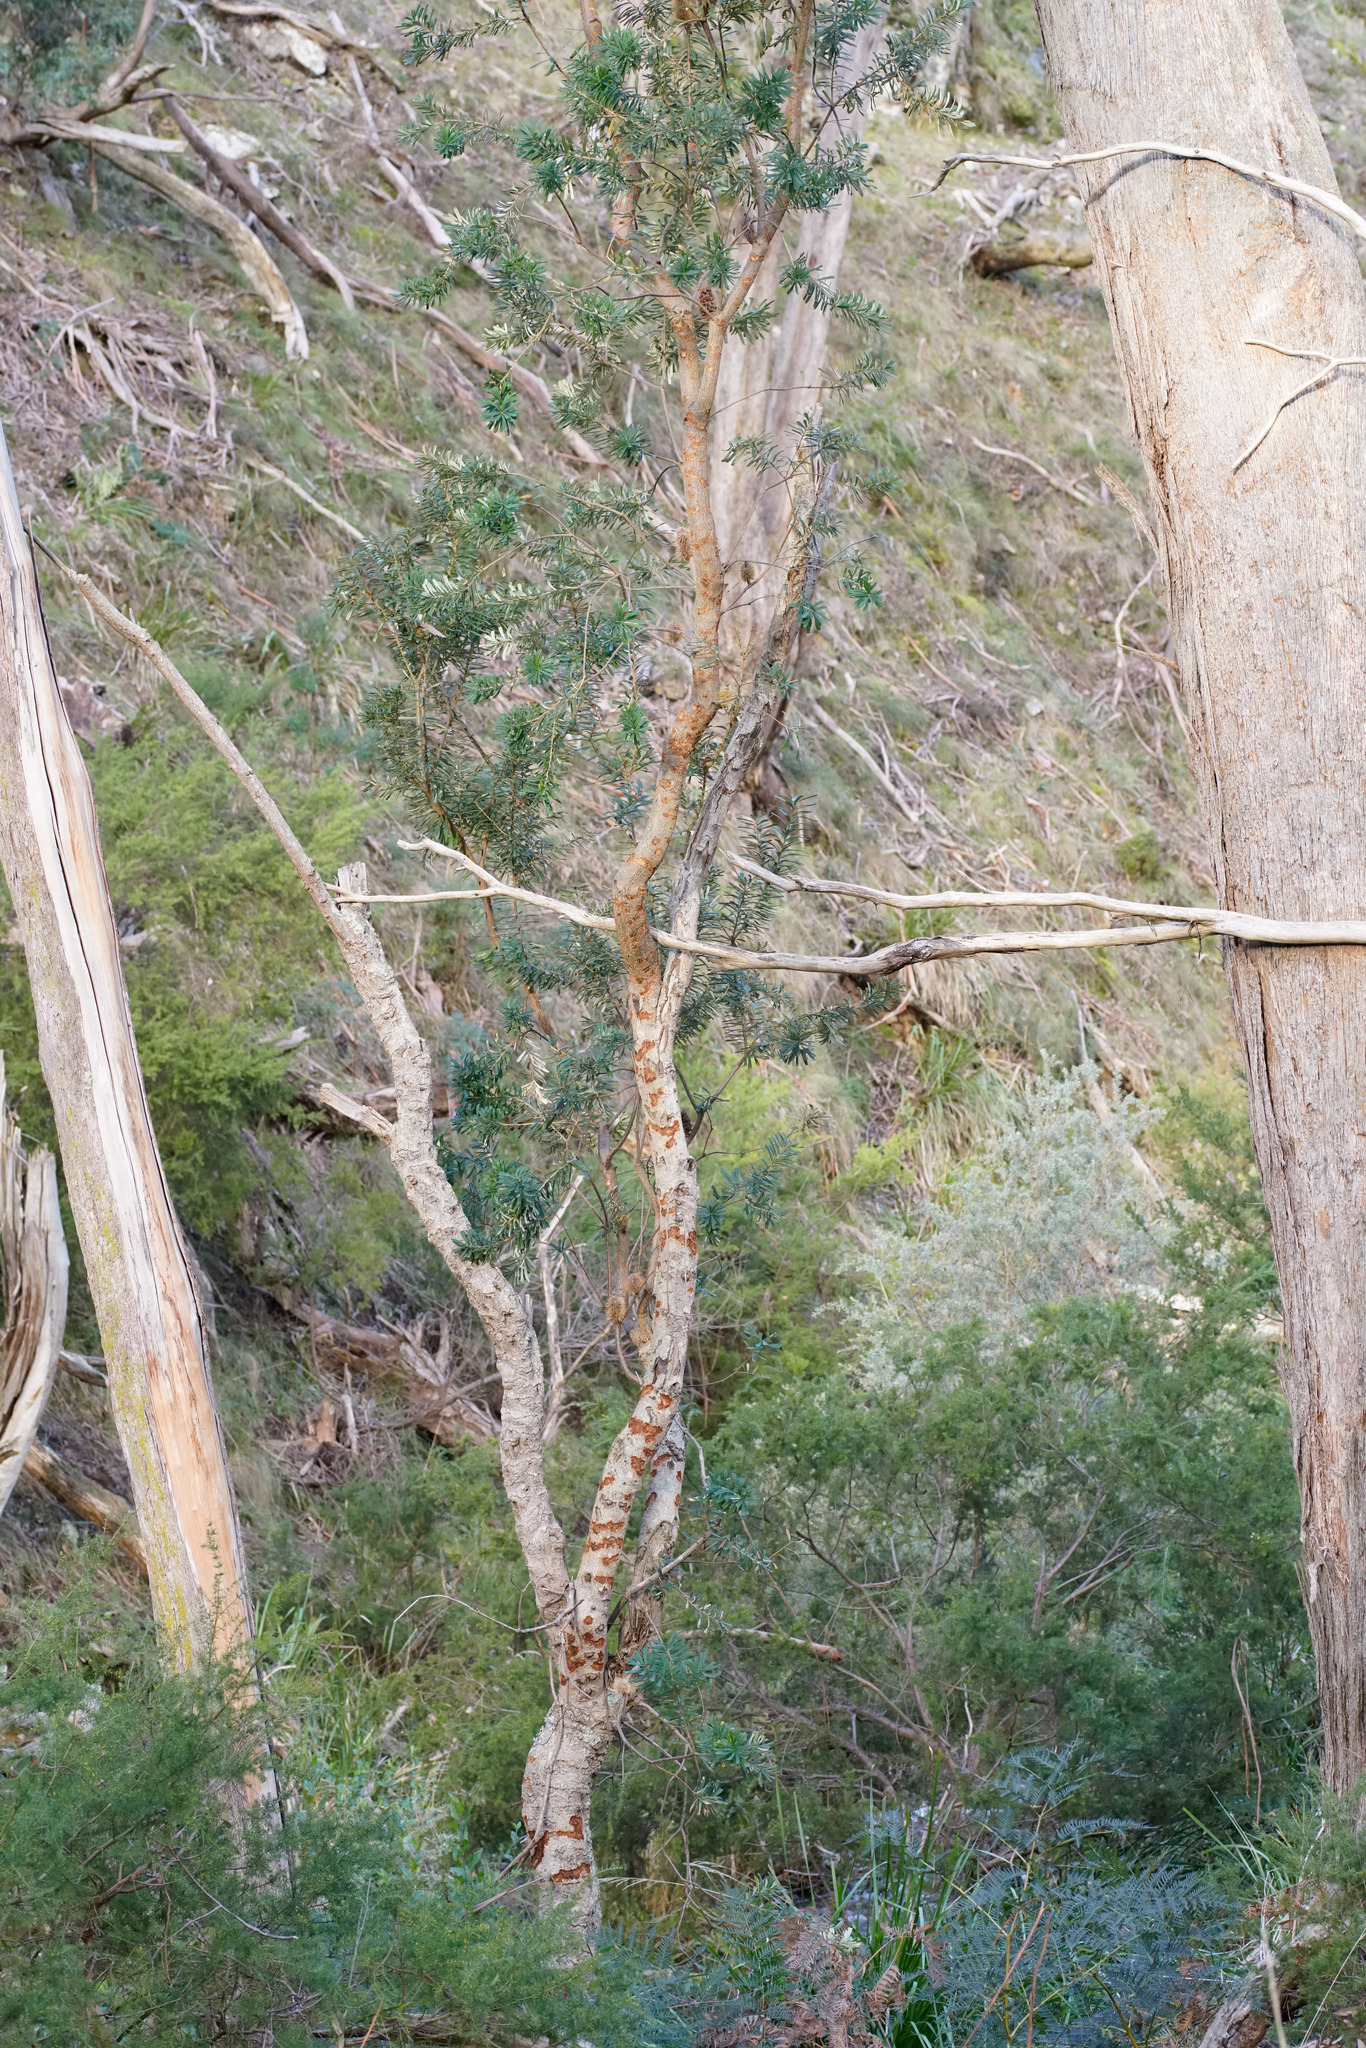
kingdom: Plantae
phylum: Tracheophyta
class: Magnoliopsida
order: Proteales
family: Proteaceae
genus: Banksia
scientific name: Banksia marginata
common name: Silver banksia
